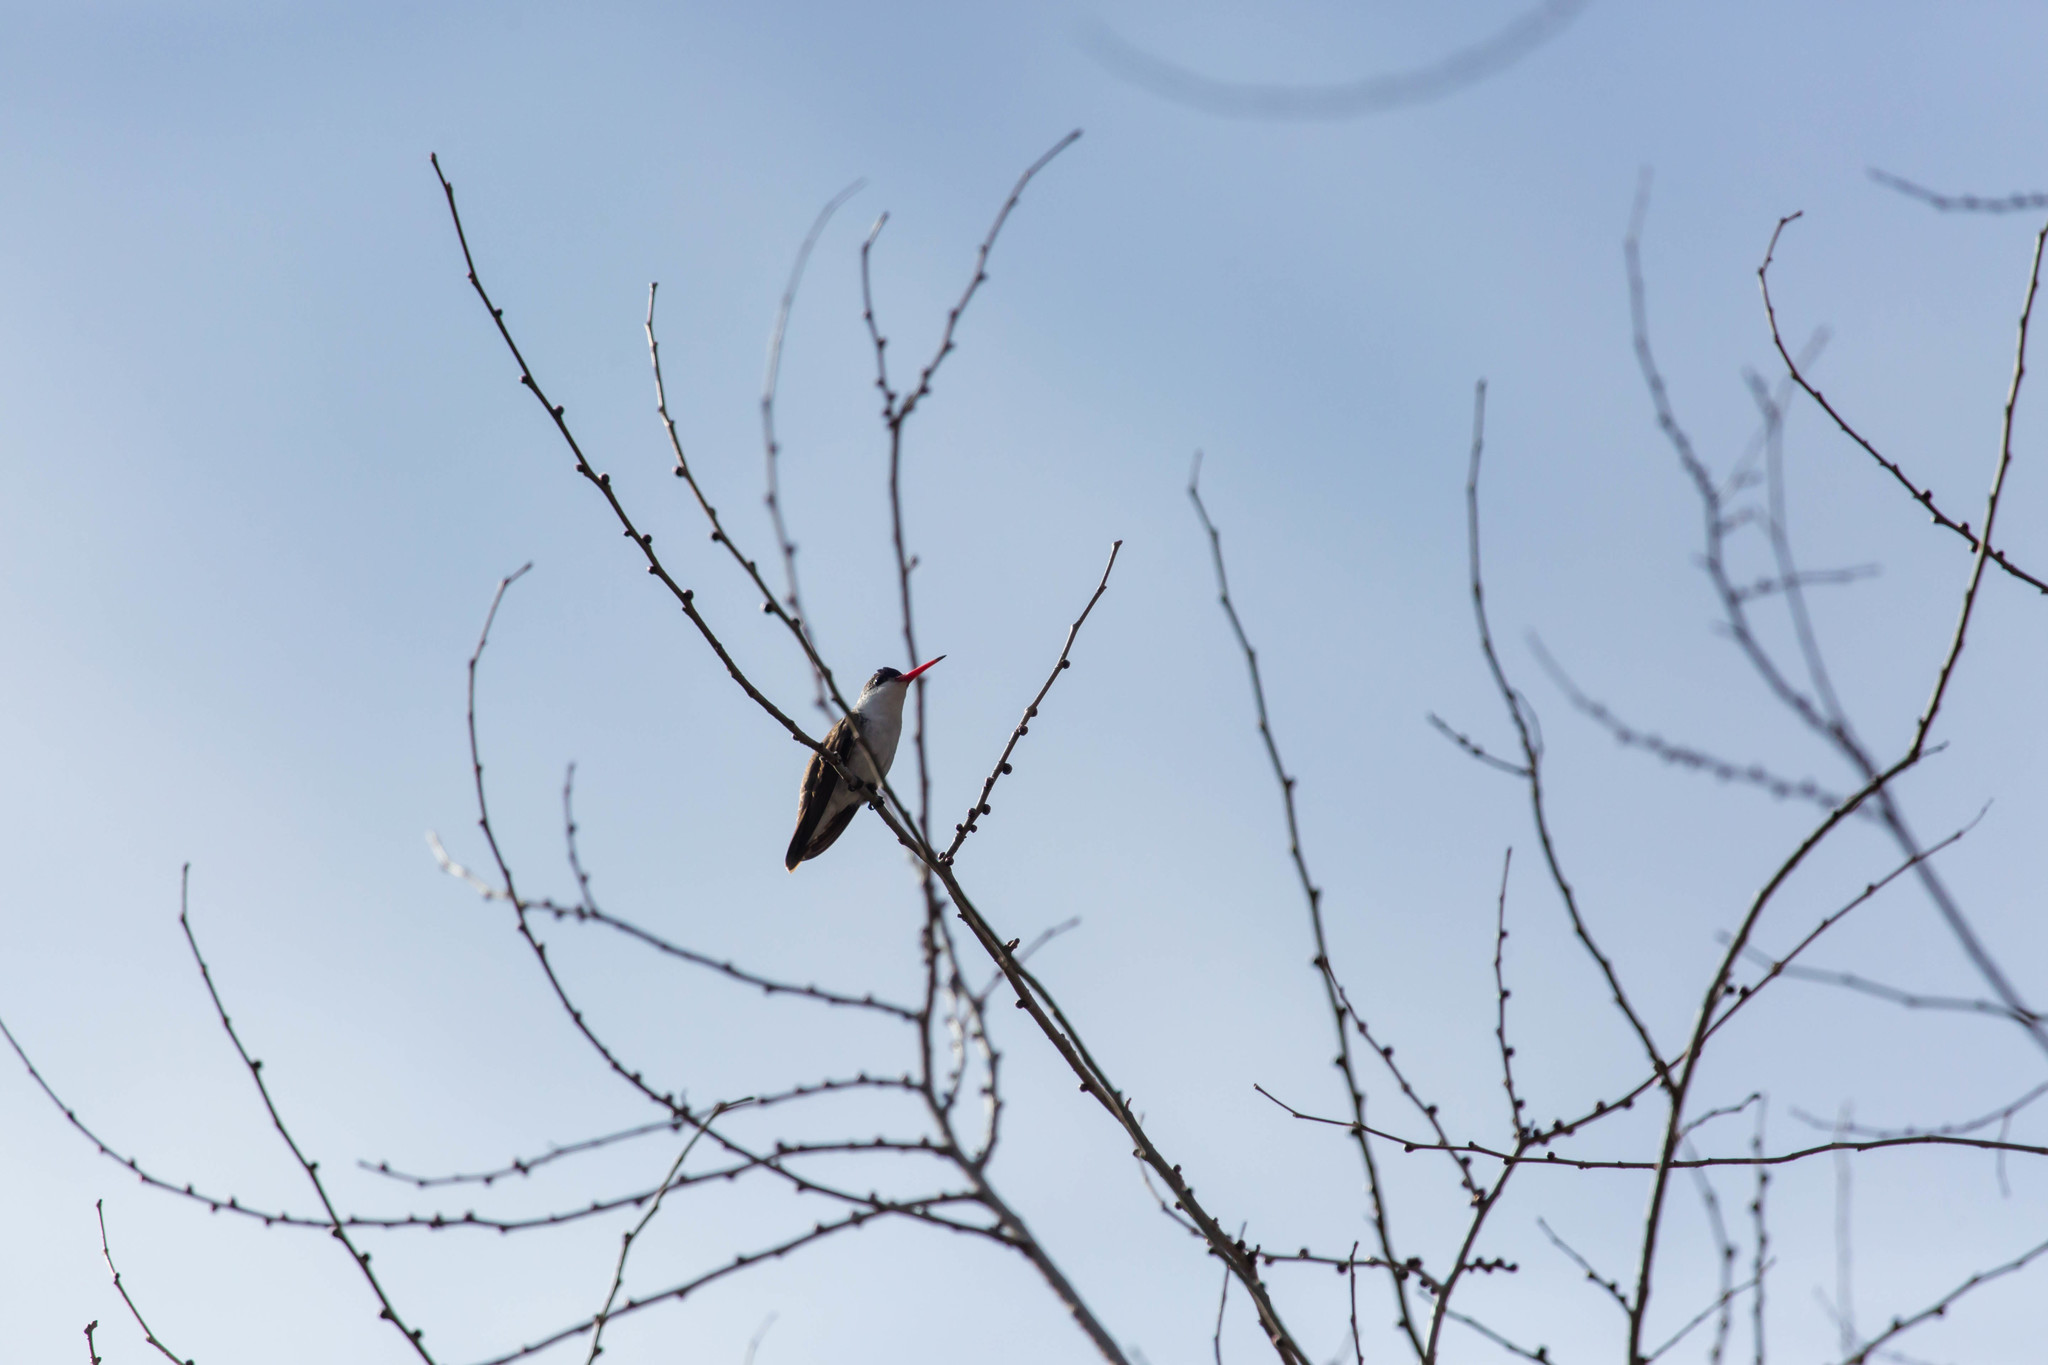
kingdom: Animalia
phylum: Chordata
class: Aves
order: Apodiformes
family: Trochilidae
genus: Leucolia
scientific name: Leucolia violiceps
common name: Violet-crowned hummingbird
